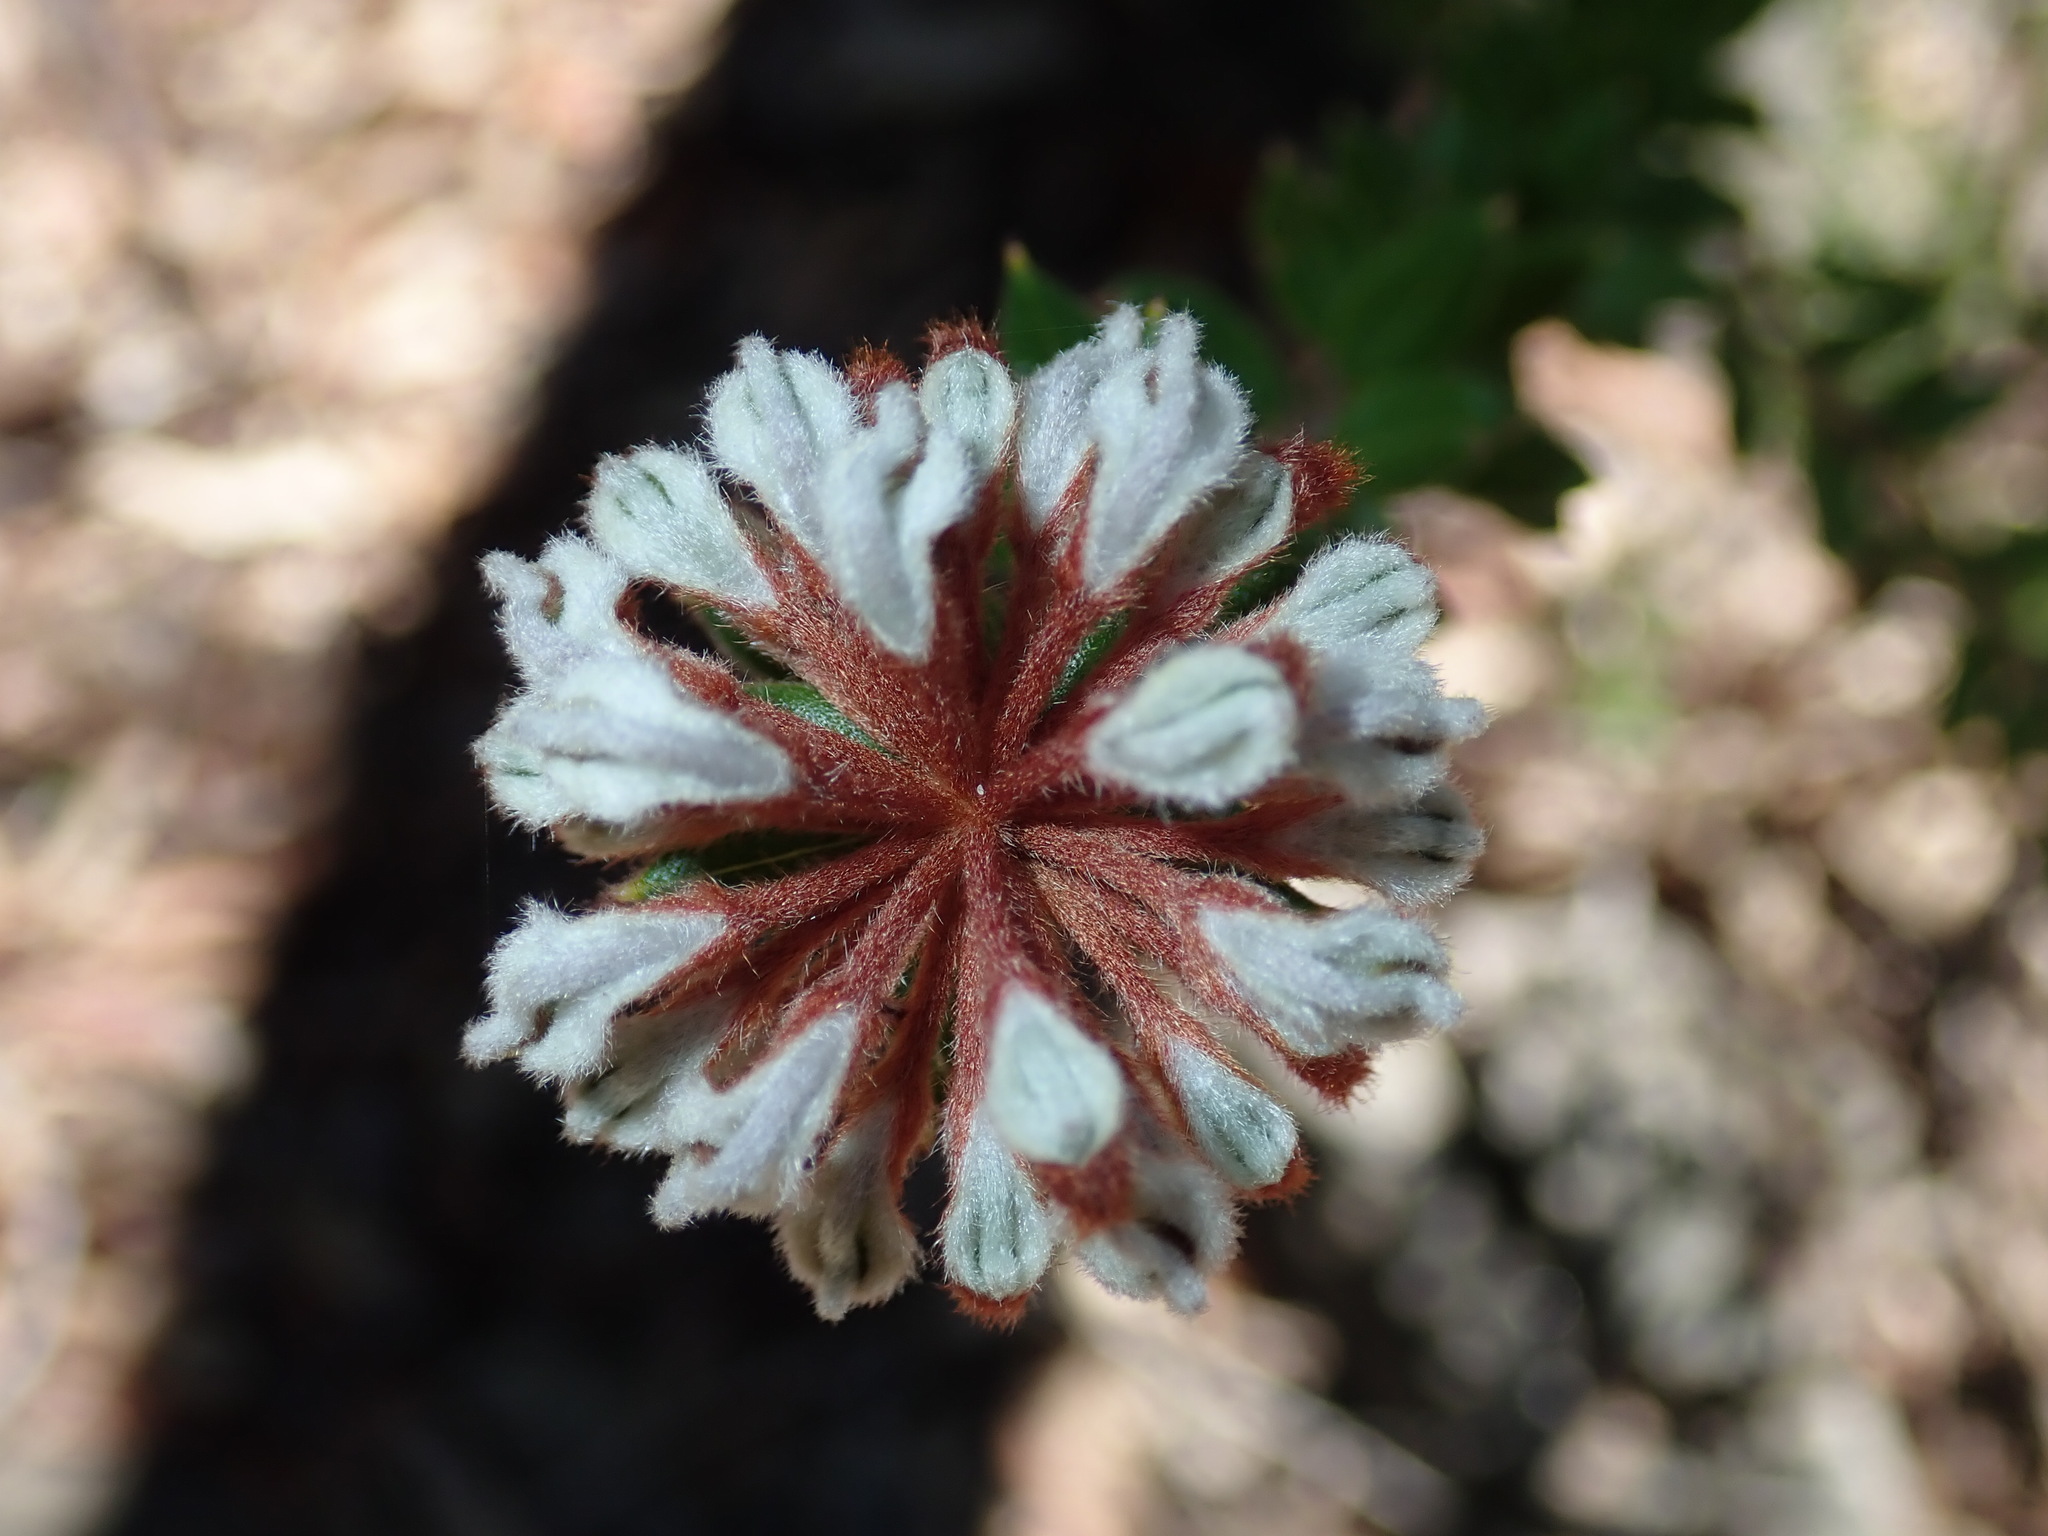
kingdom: Plantae
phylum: Tracheophyta
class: Magnoliopsida
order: Proteales
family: Proteaceae
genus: Grevillea
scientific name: Grevillea buxifolia
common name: Grey spiderflower
